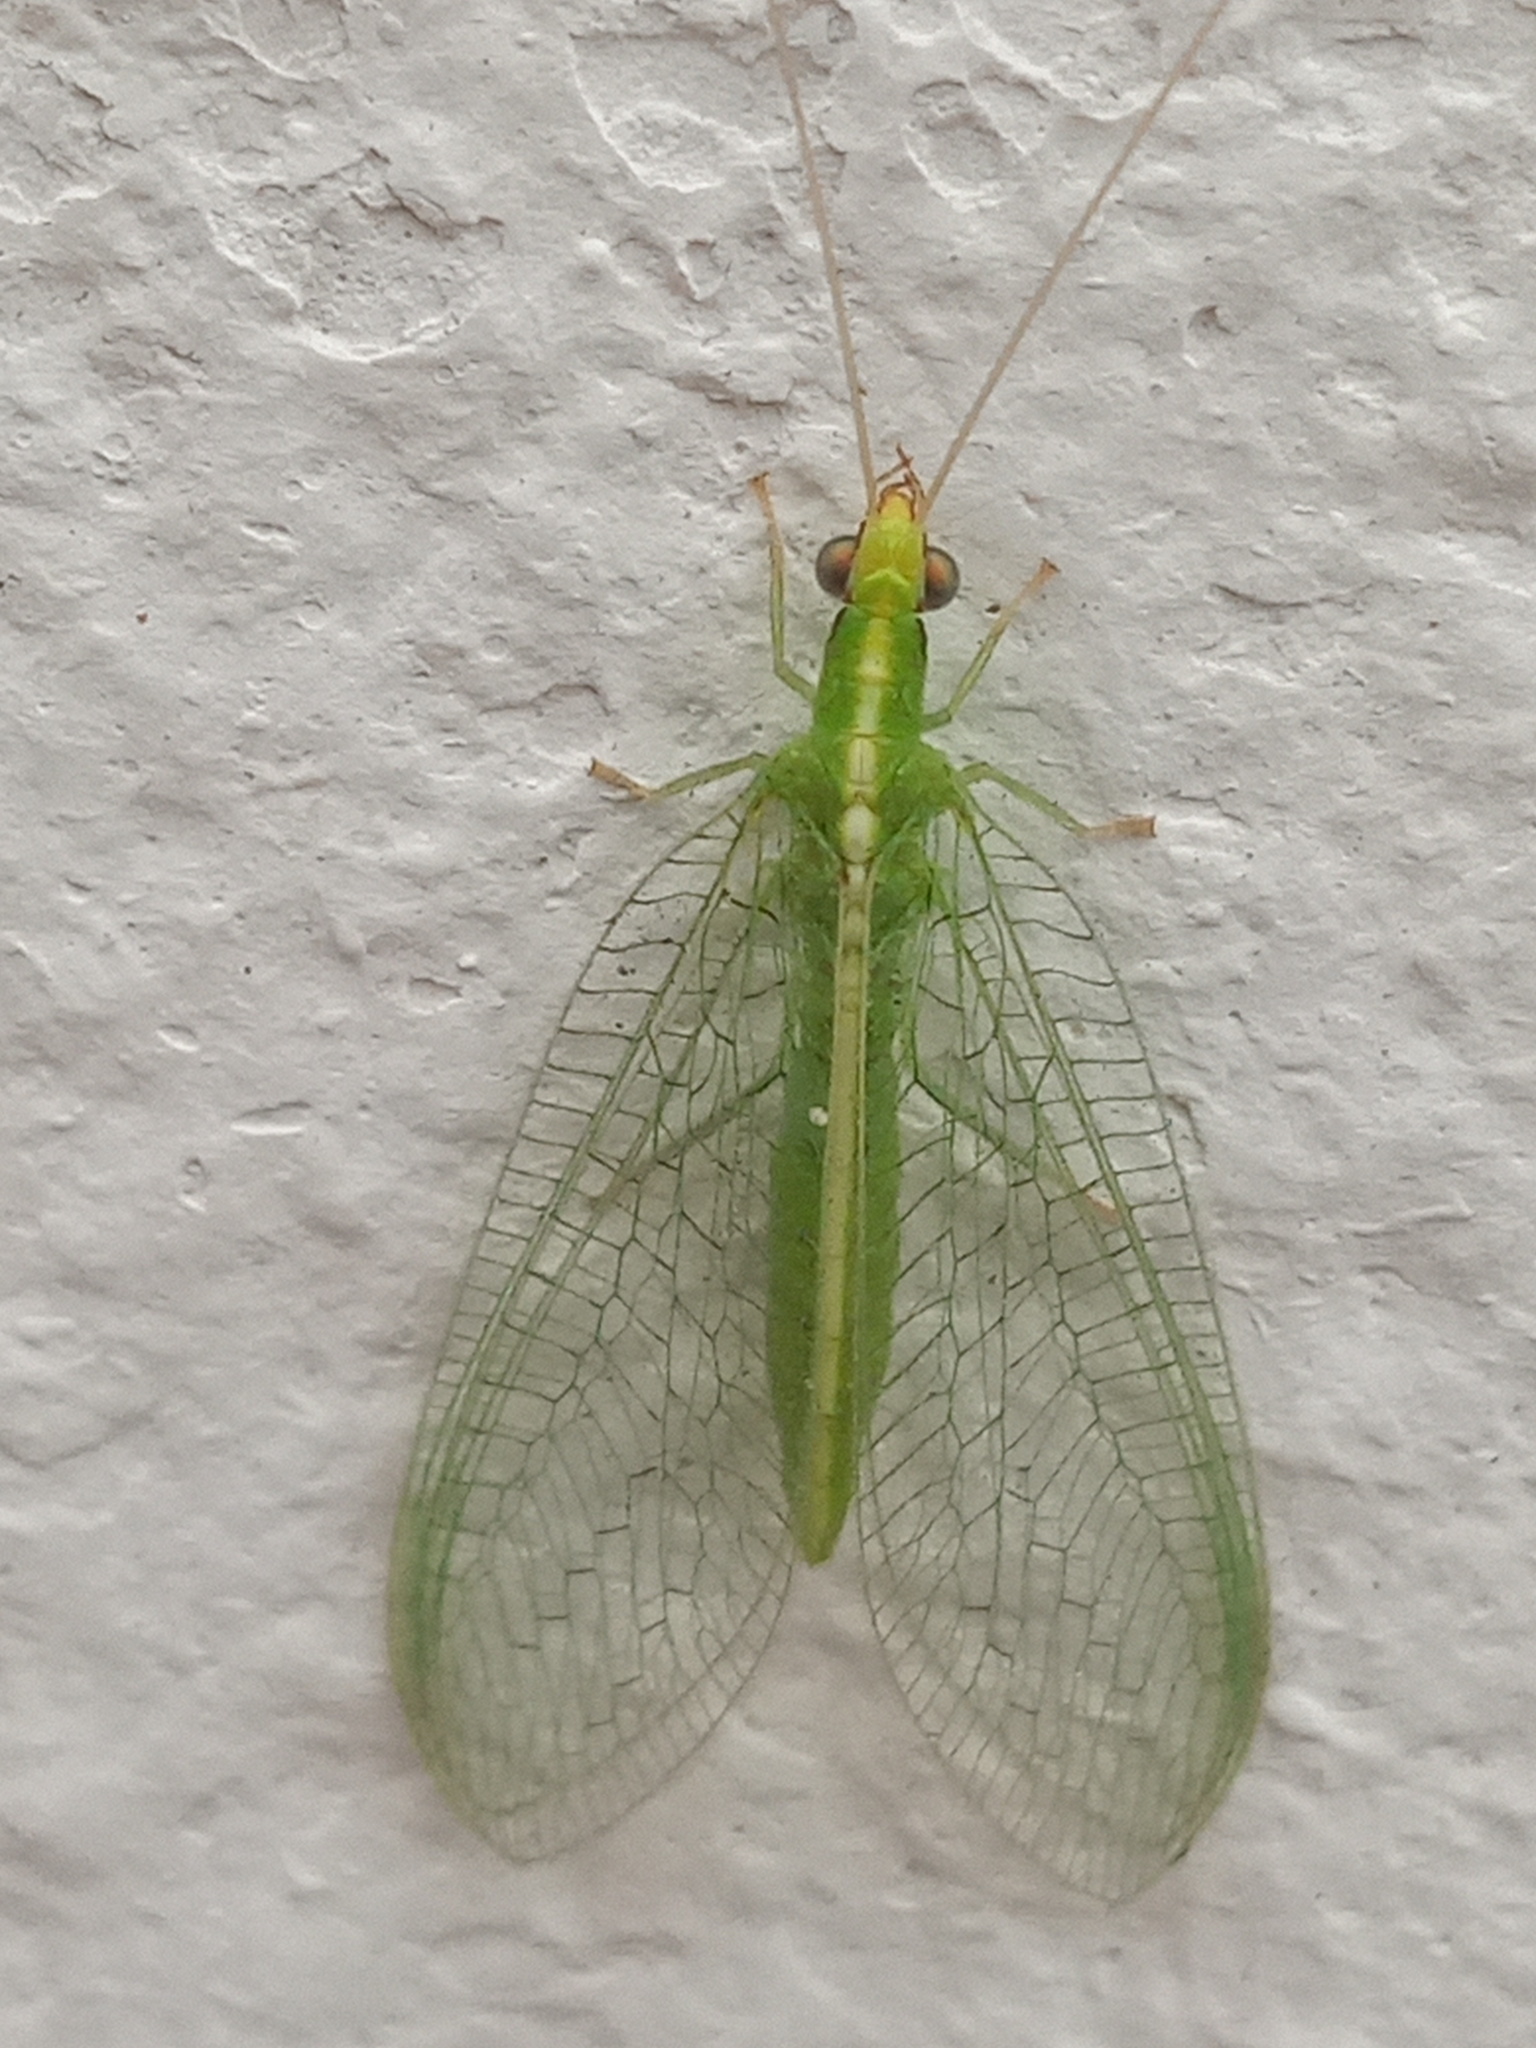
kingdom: Animalia
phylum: Arthropoda
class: Insecta
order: Neuroptera
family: Chrysopidae
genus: Chrysoperla
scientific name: Chrysoperla rufilabris
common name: Red-lipped green lacewing
